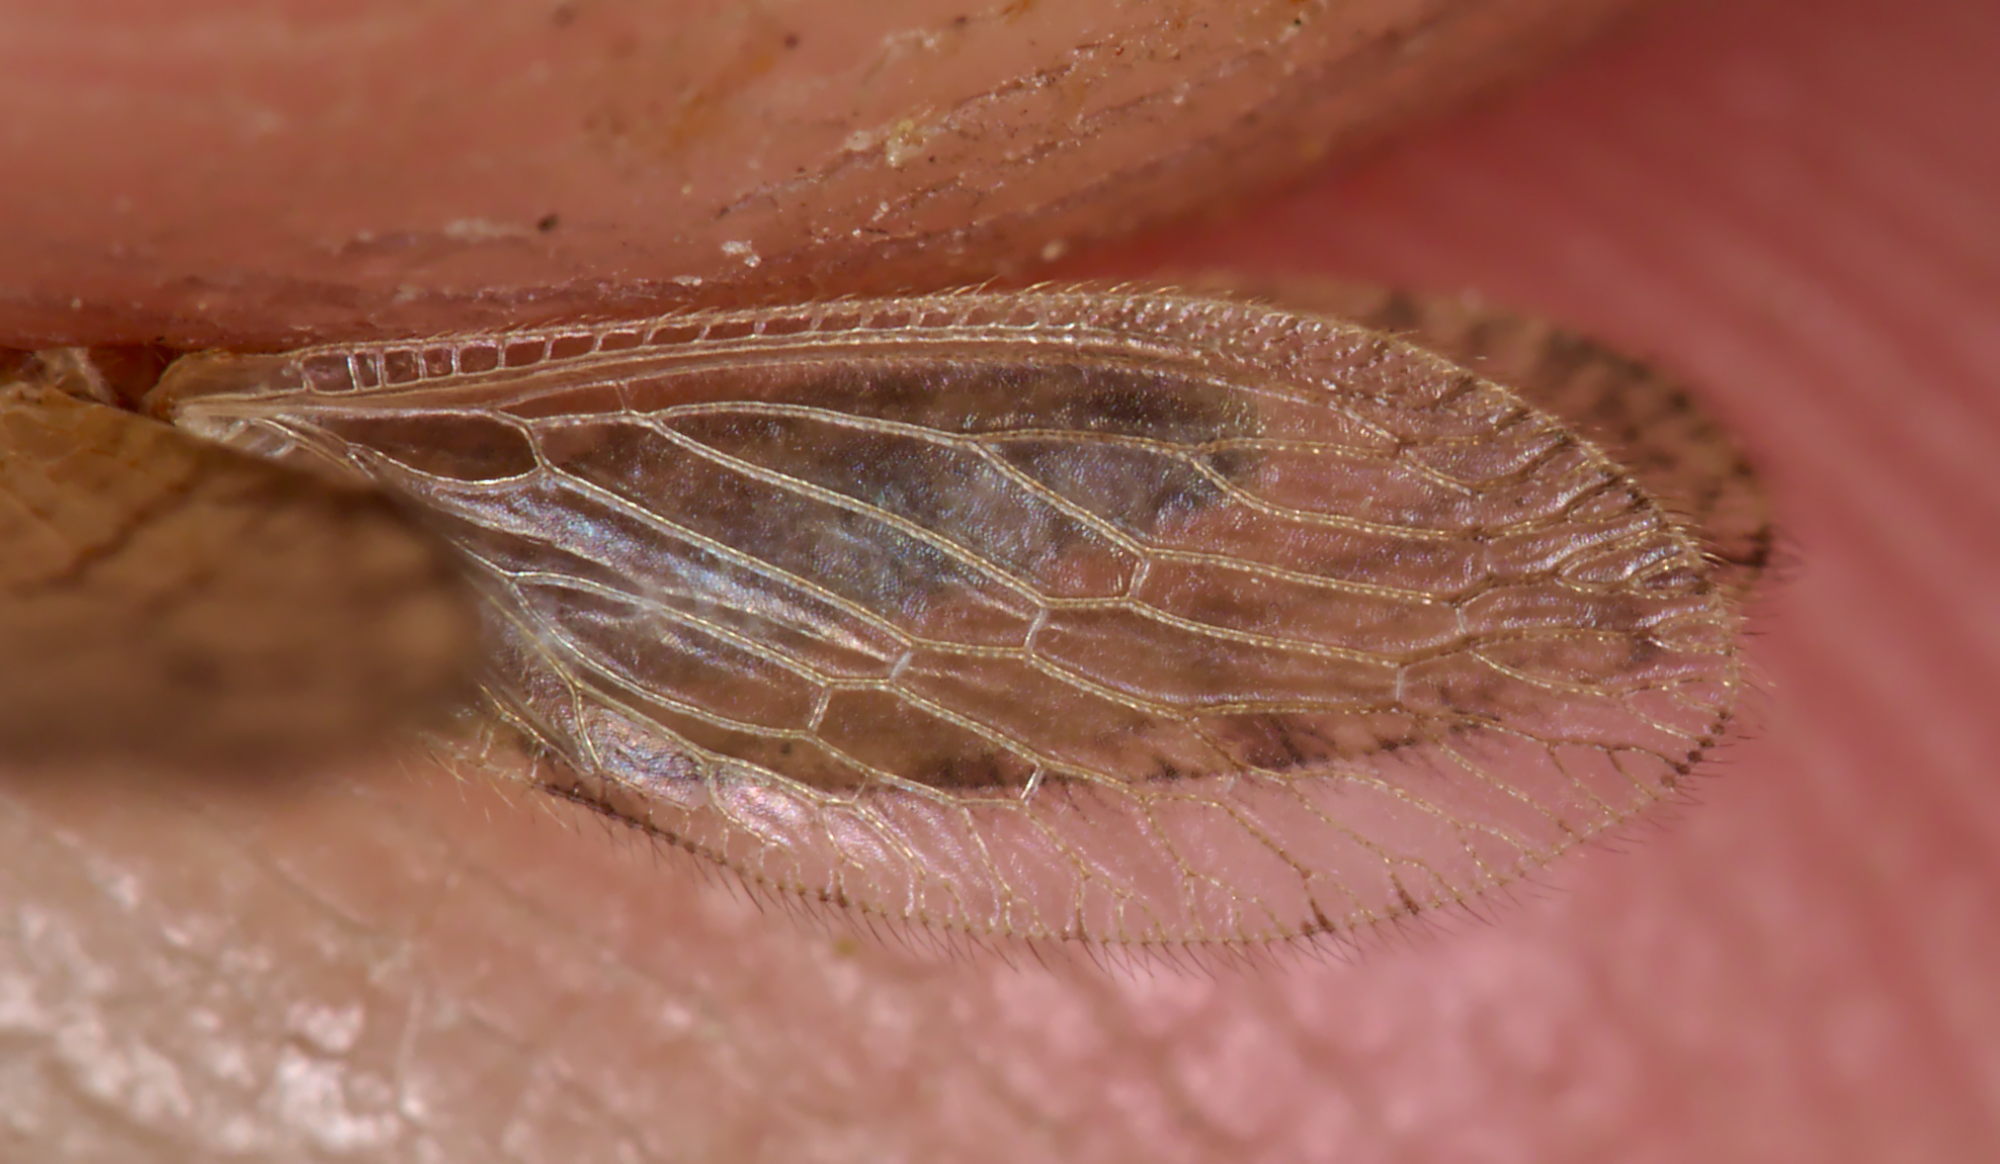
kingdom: Animalia
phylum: Arthropoda
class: Insecta
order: Neuroptera
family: Hemerobiidae
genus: Micromus
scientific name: Micromus angulatus
